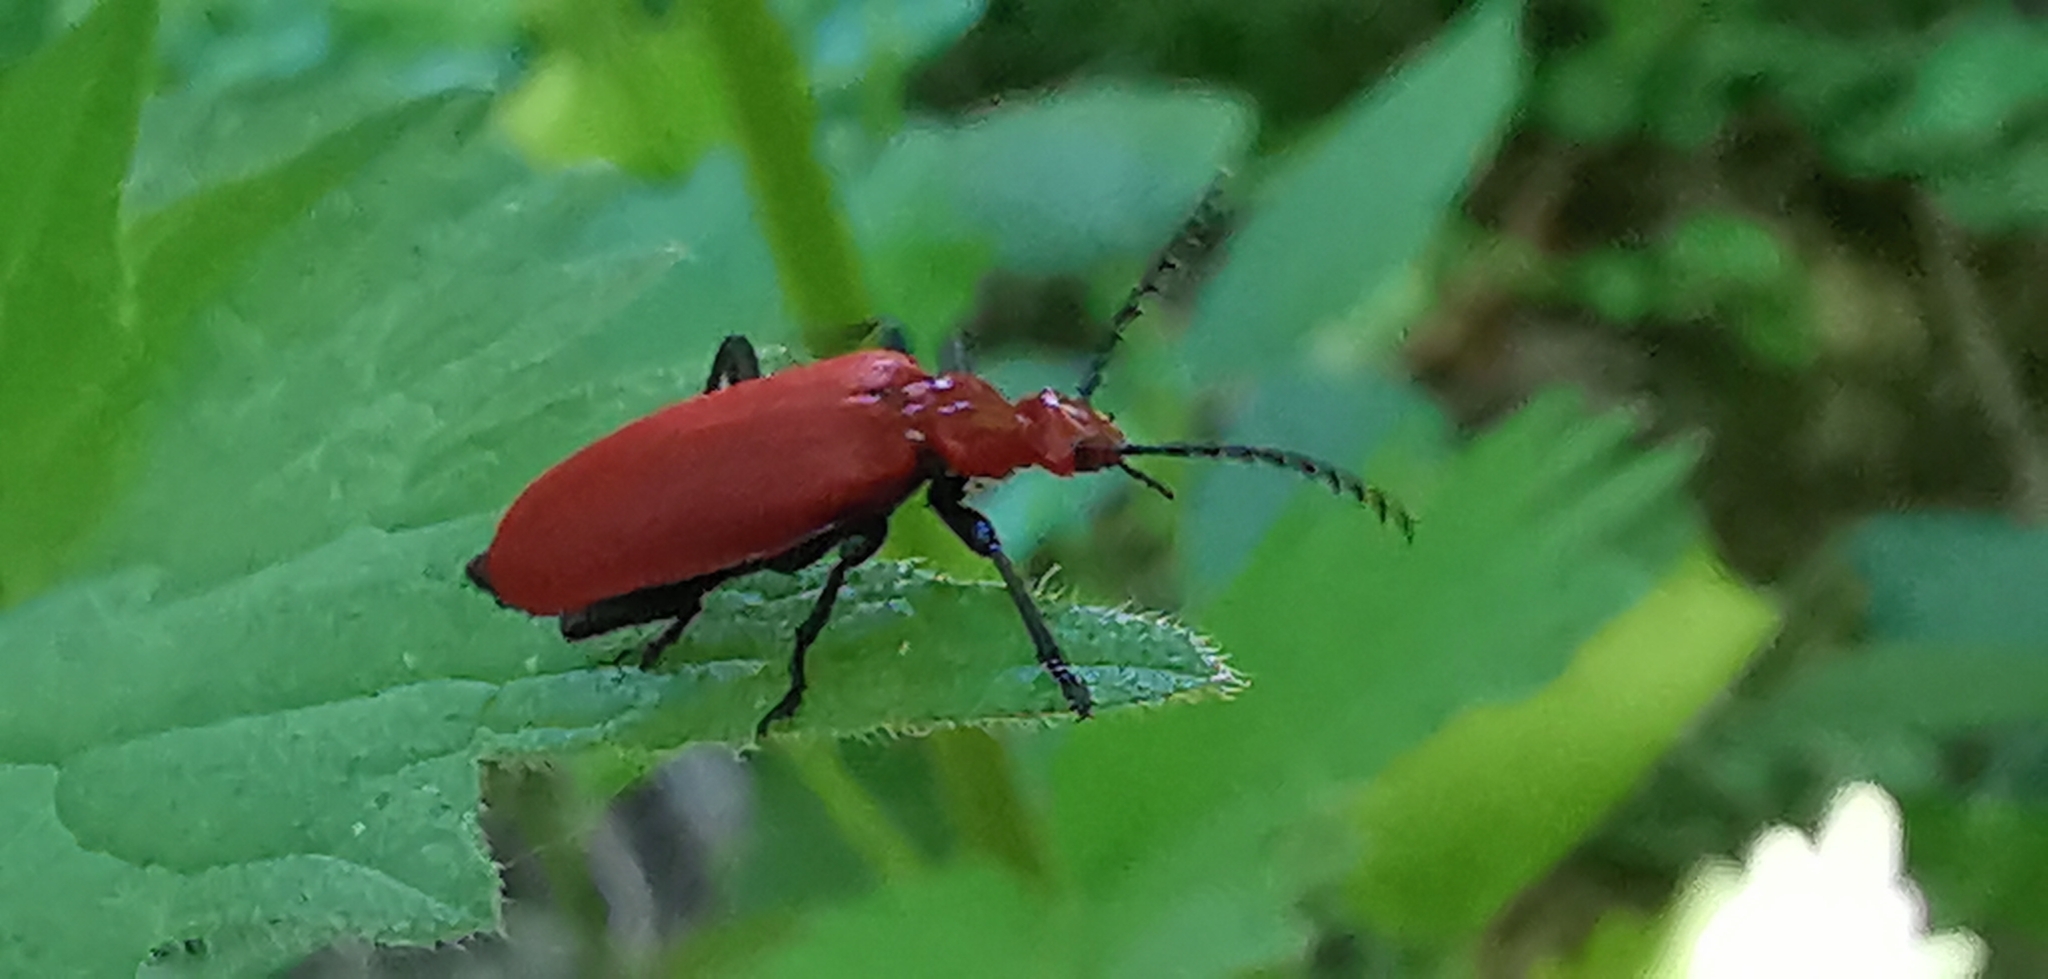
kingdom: Animalia
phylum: Arthropoda
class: Insecta
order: Coleoptera
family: Pyrochroidae
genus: Pyrochroa
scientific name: Pyrochroa serraticornis
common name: Red-headed cardinal beetle
